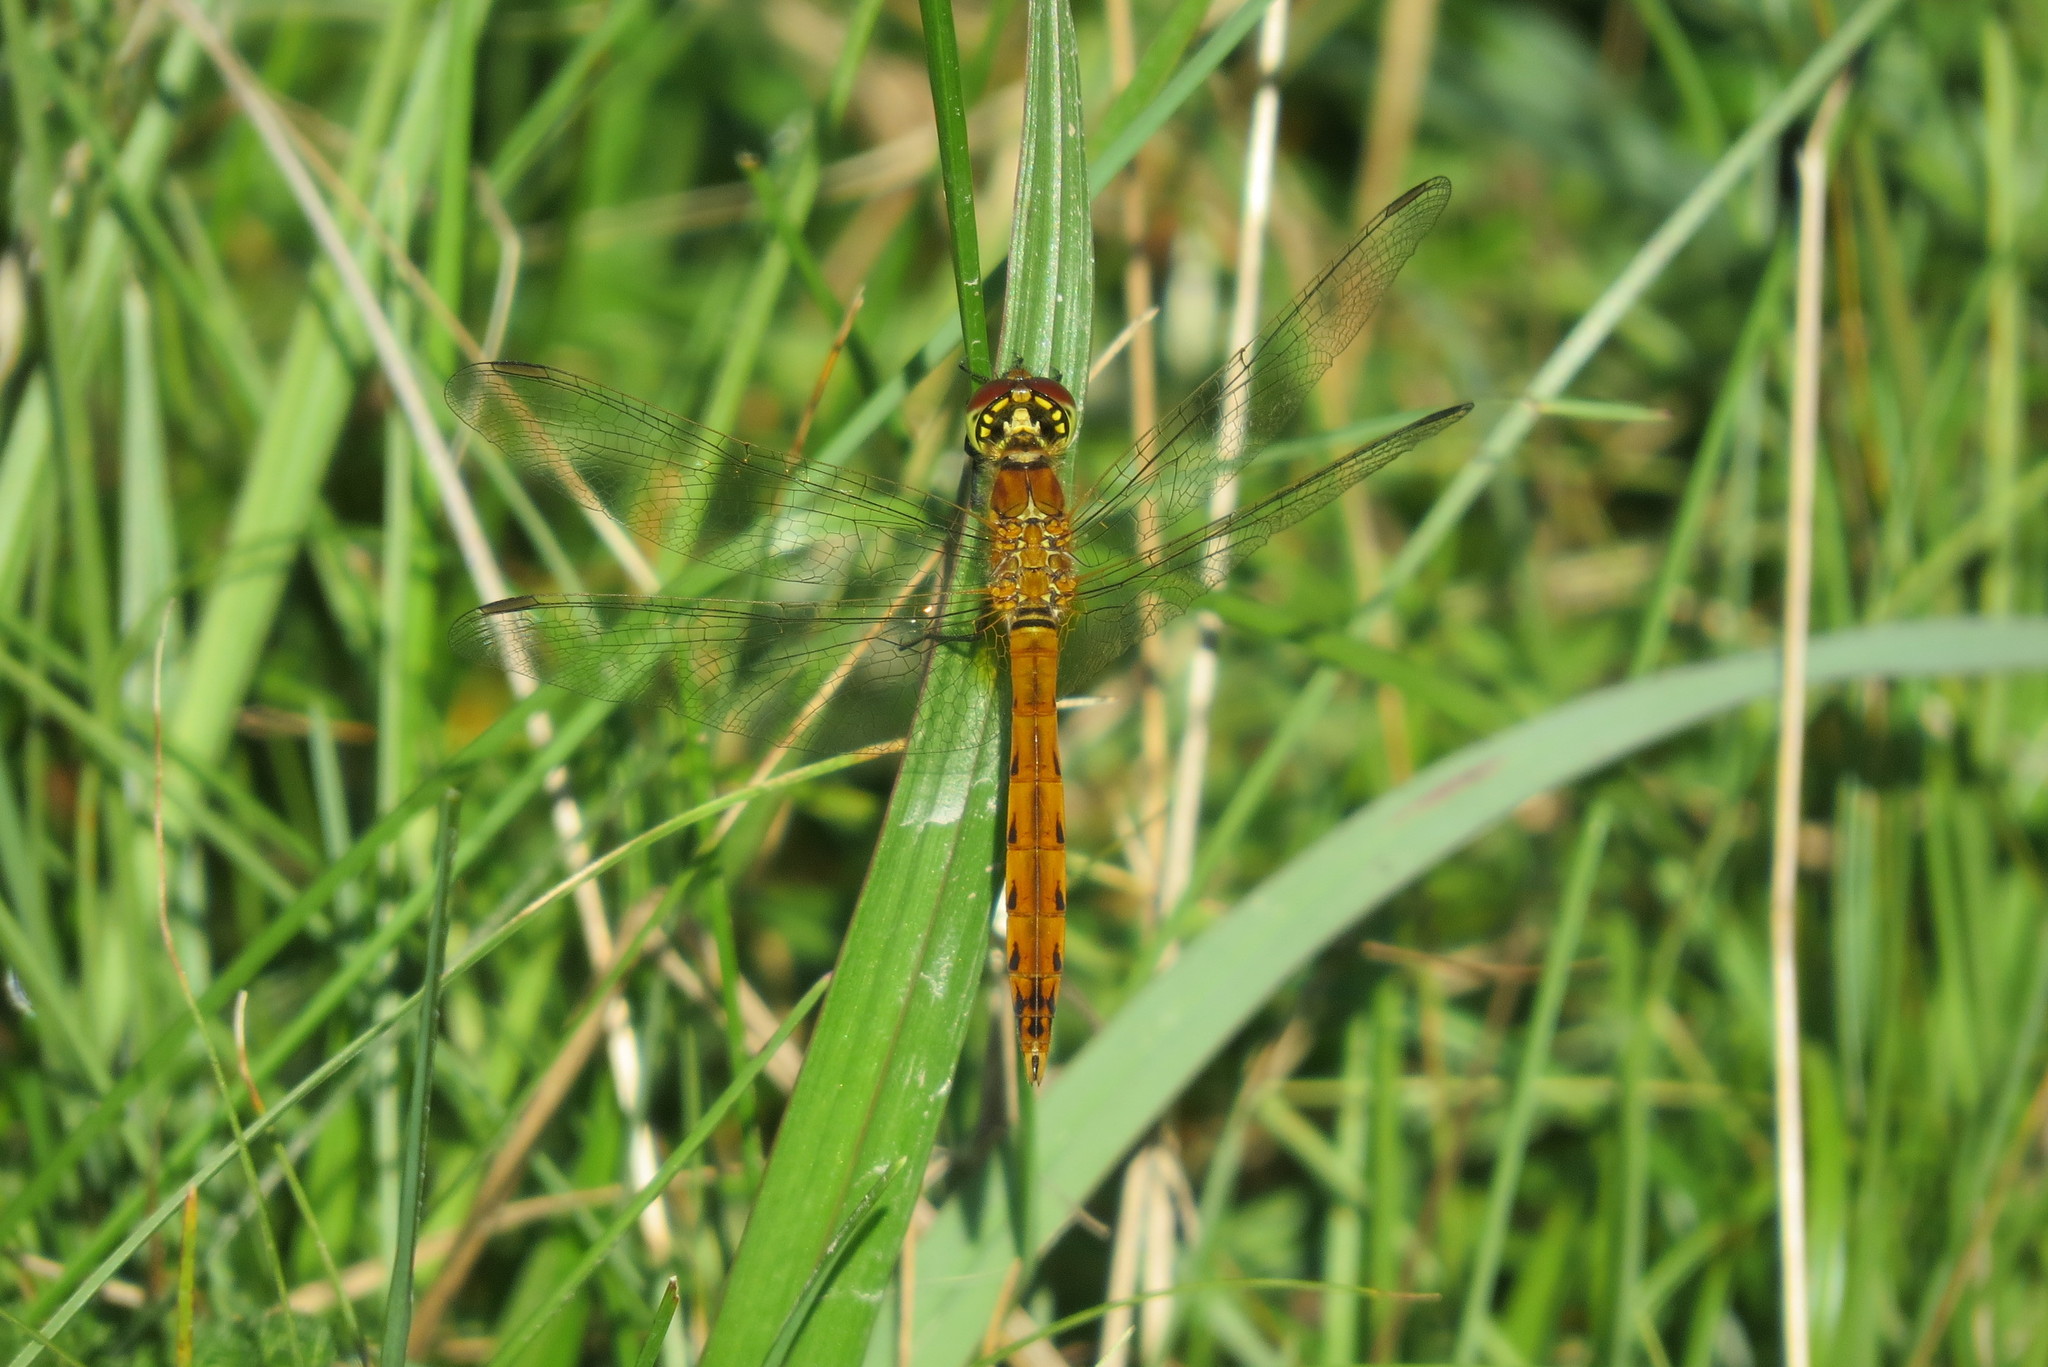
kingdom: Animalia
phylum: Arthropoda
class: Insecta
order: Odonata
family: Libellulidae
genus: Sympetrum
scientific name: Sympetrum depressiusculum
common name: Spotted darter
